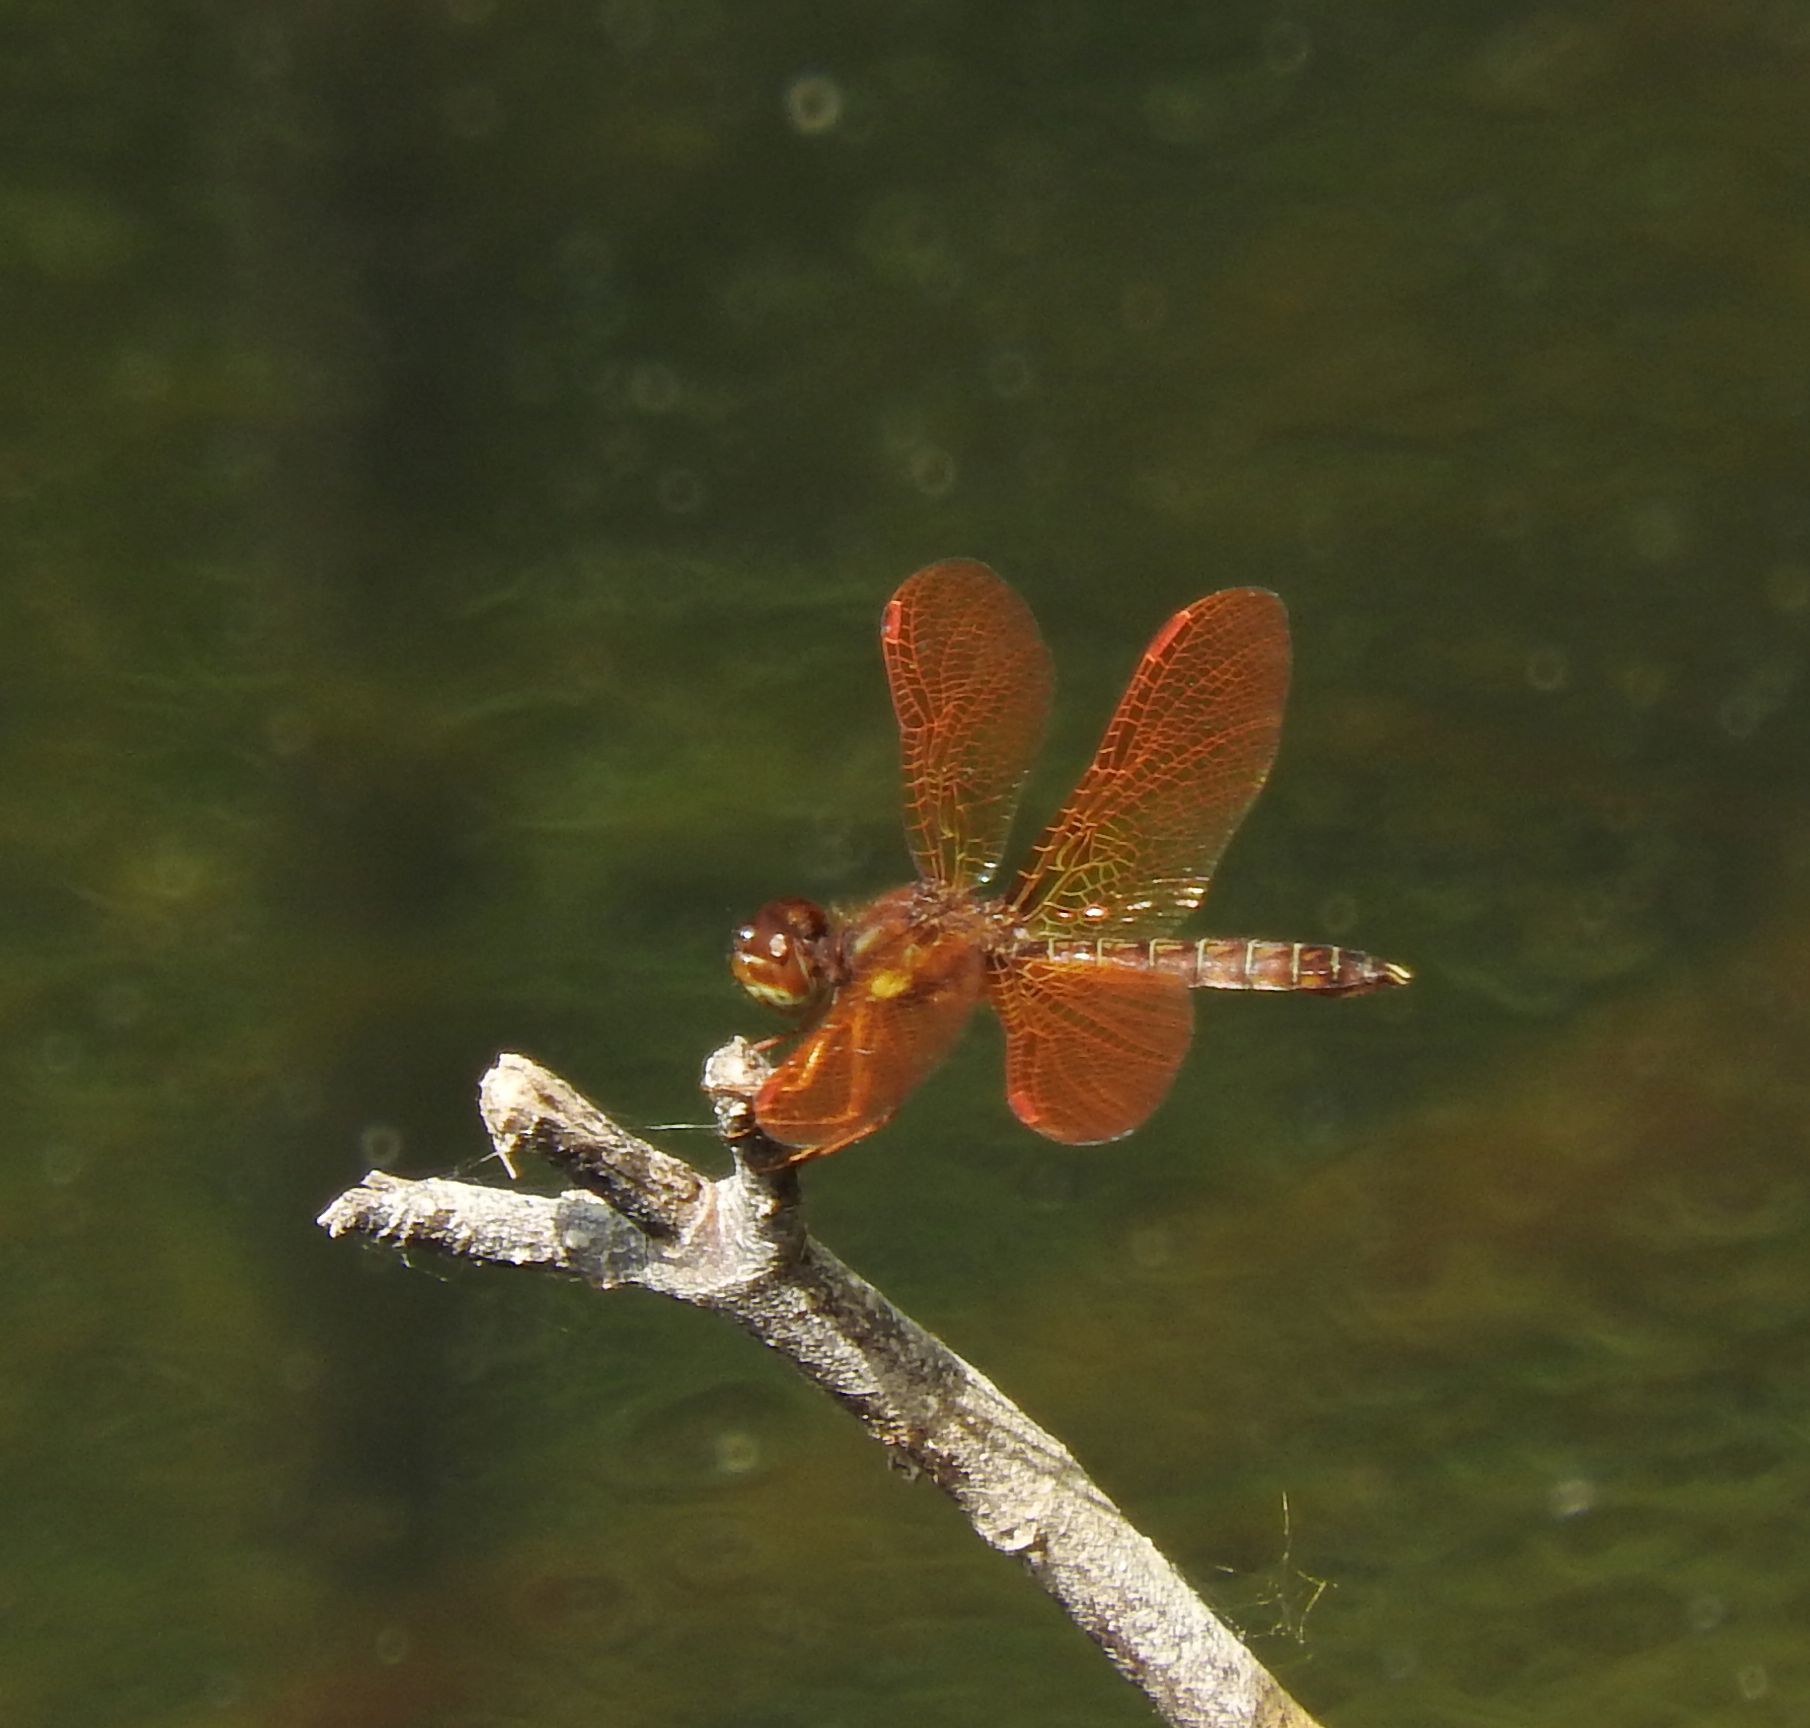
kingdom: Animalia
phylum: Arthropoda
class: Insecta
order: Odonata
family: Libellulidae
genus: Perithemis
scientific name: Perithemis tenera
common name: Eastern amberwing
